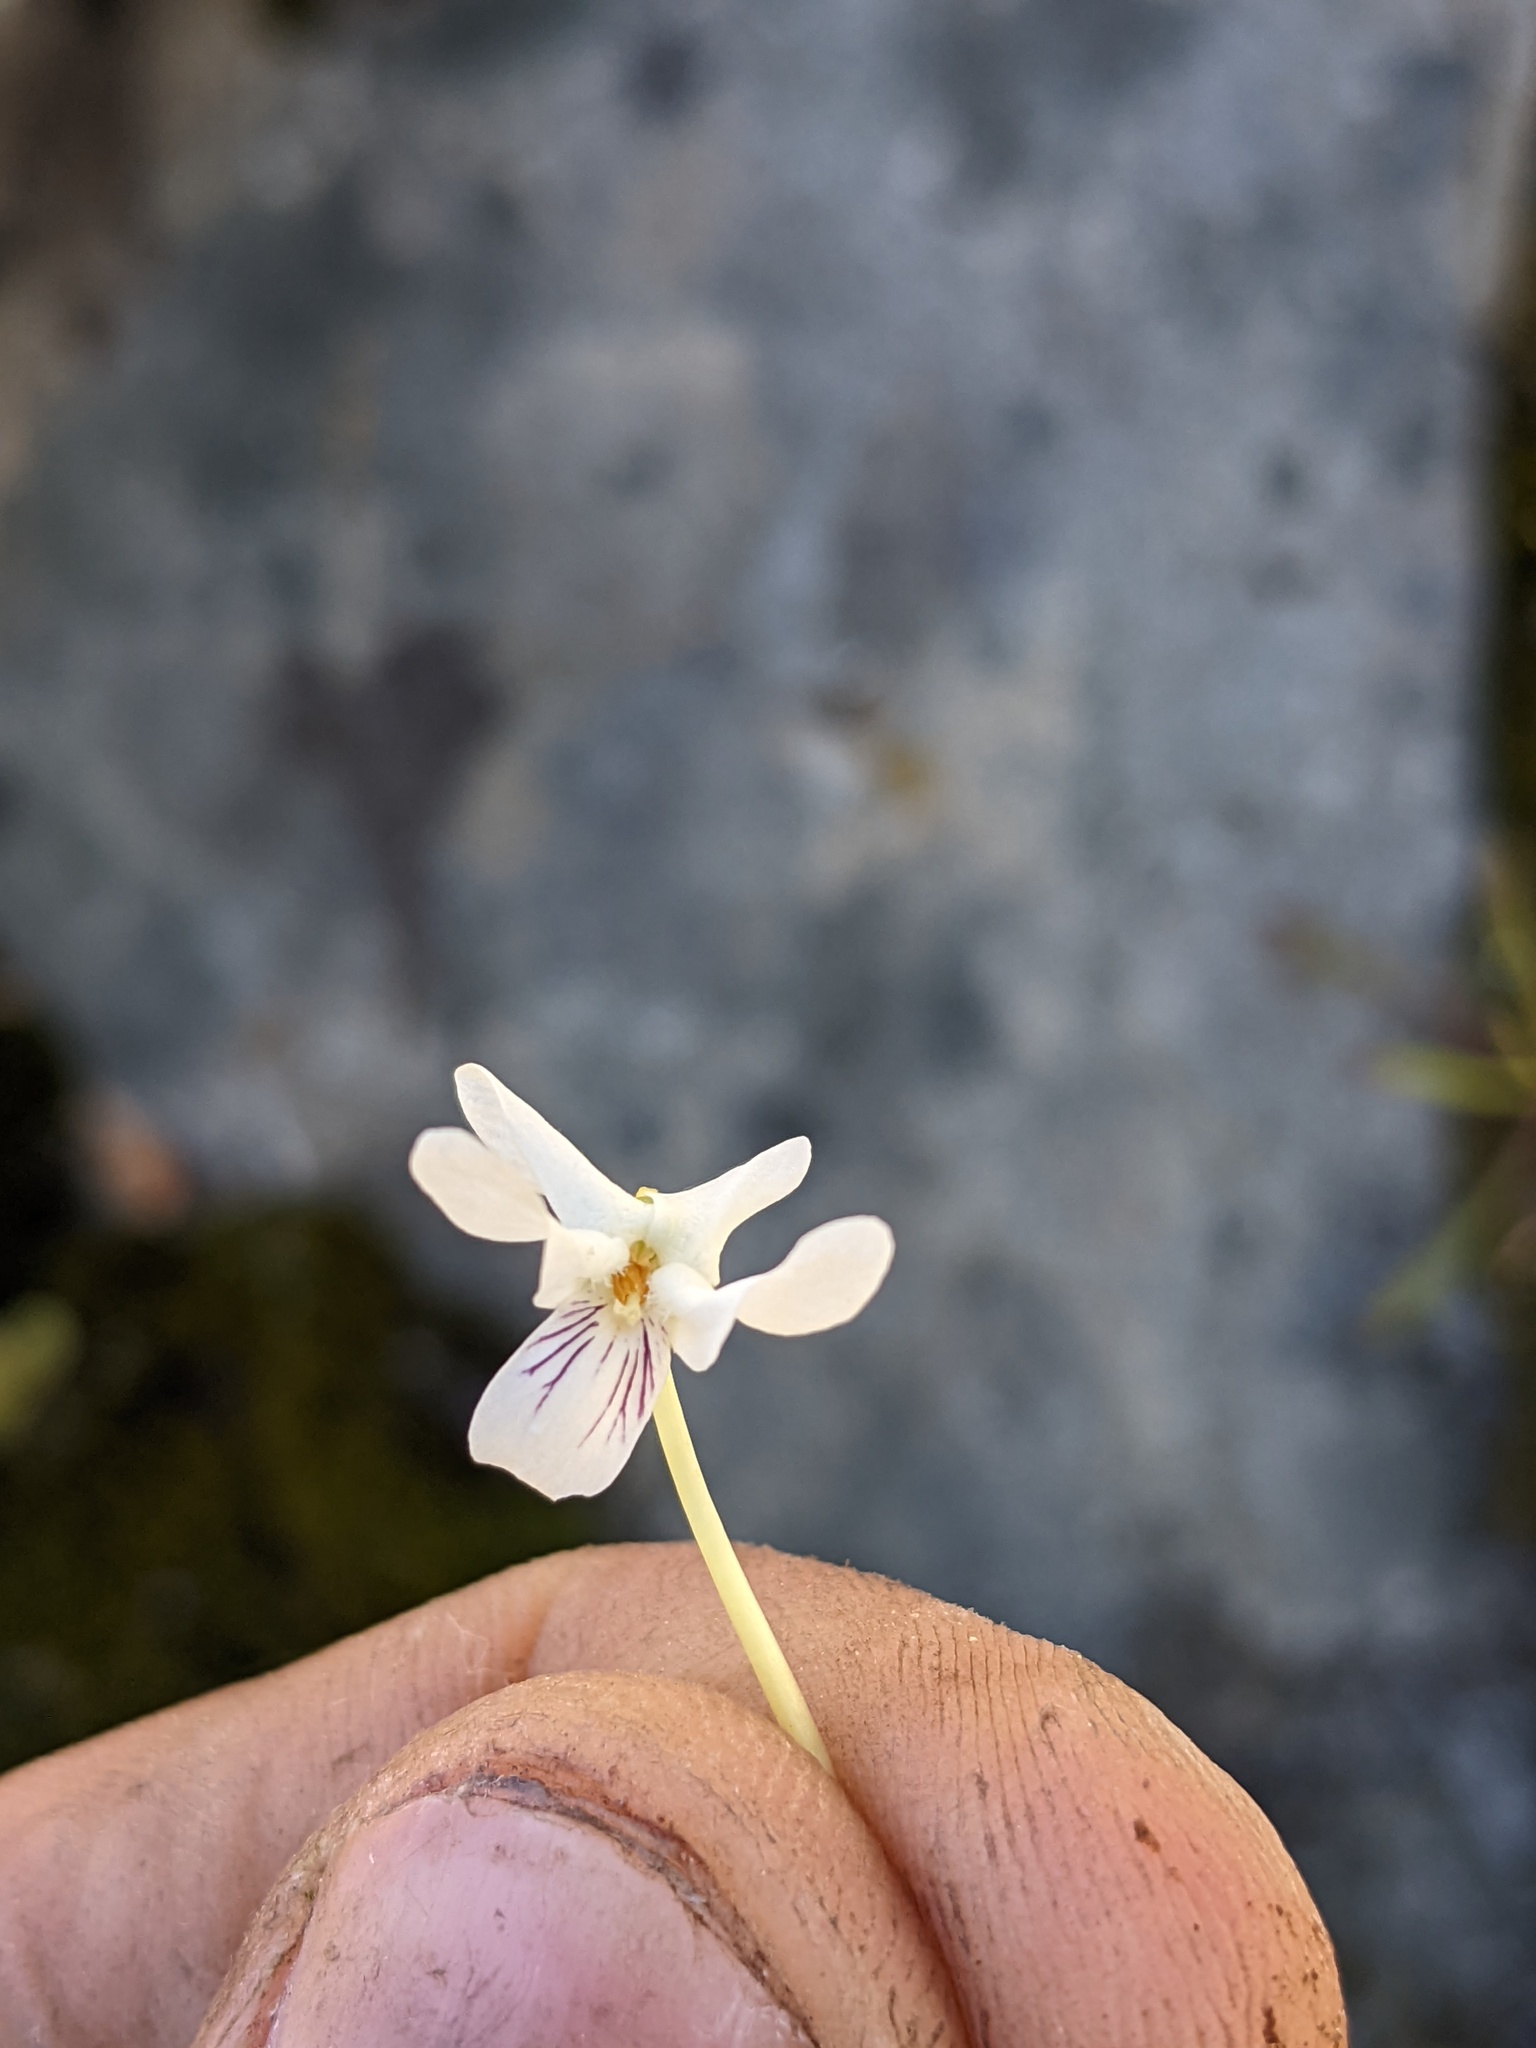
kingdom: Plantae
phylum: Tracheophyta
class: Magnoliopsida
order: Malpighiales
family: Violaceae
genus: Viola
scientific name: Viola macloskeyi
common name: Macloskey's violet
